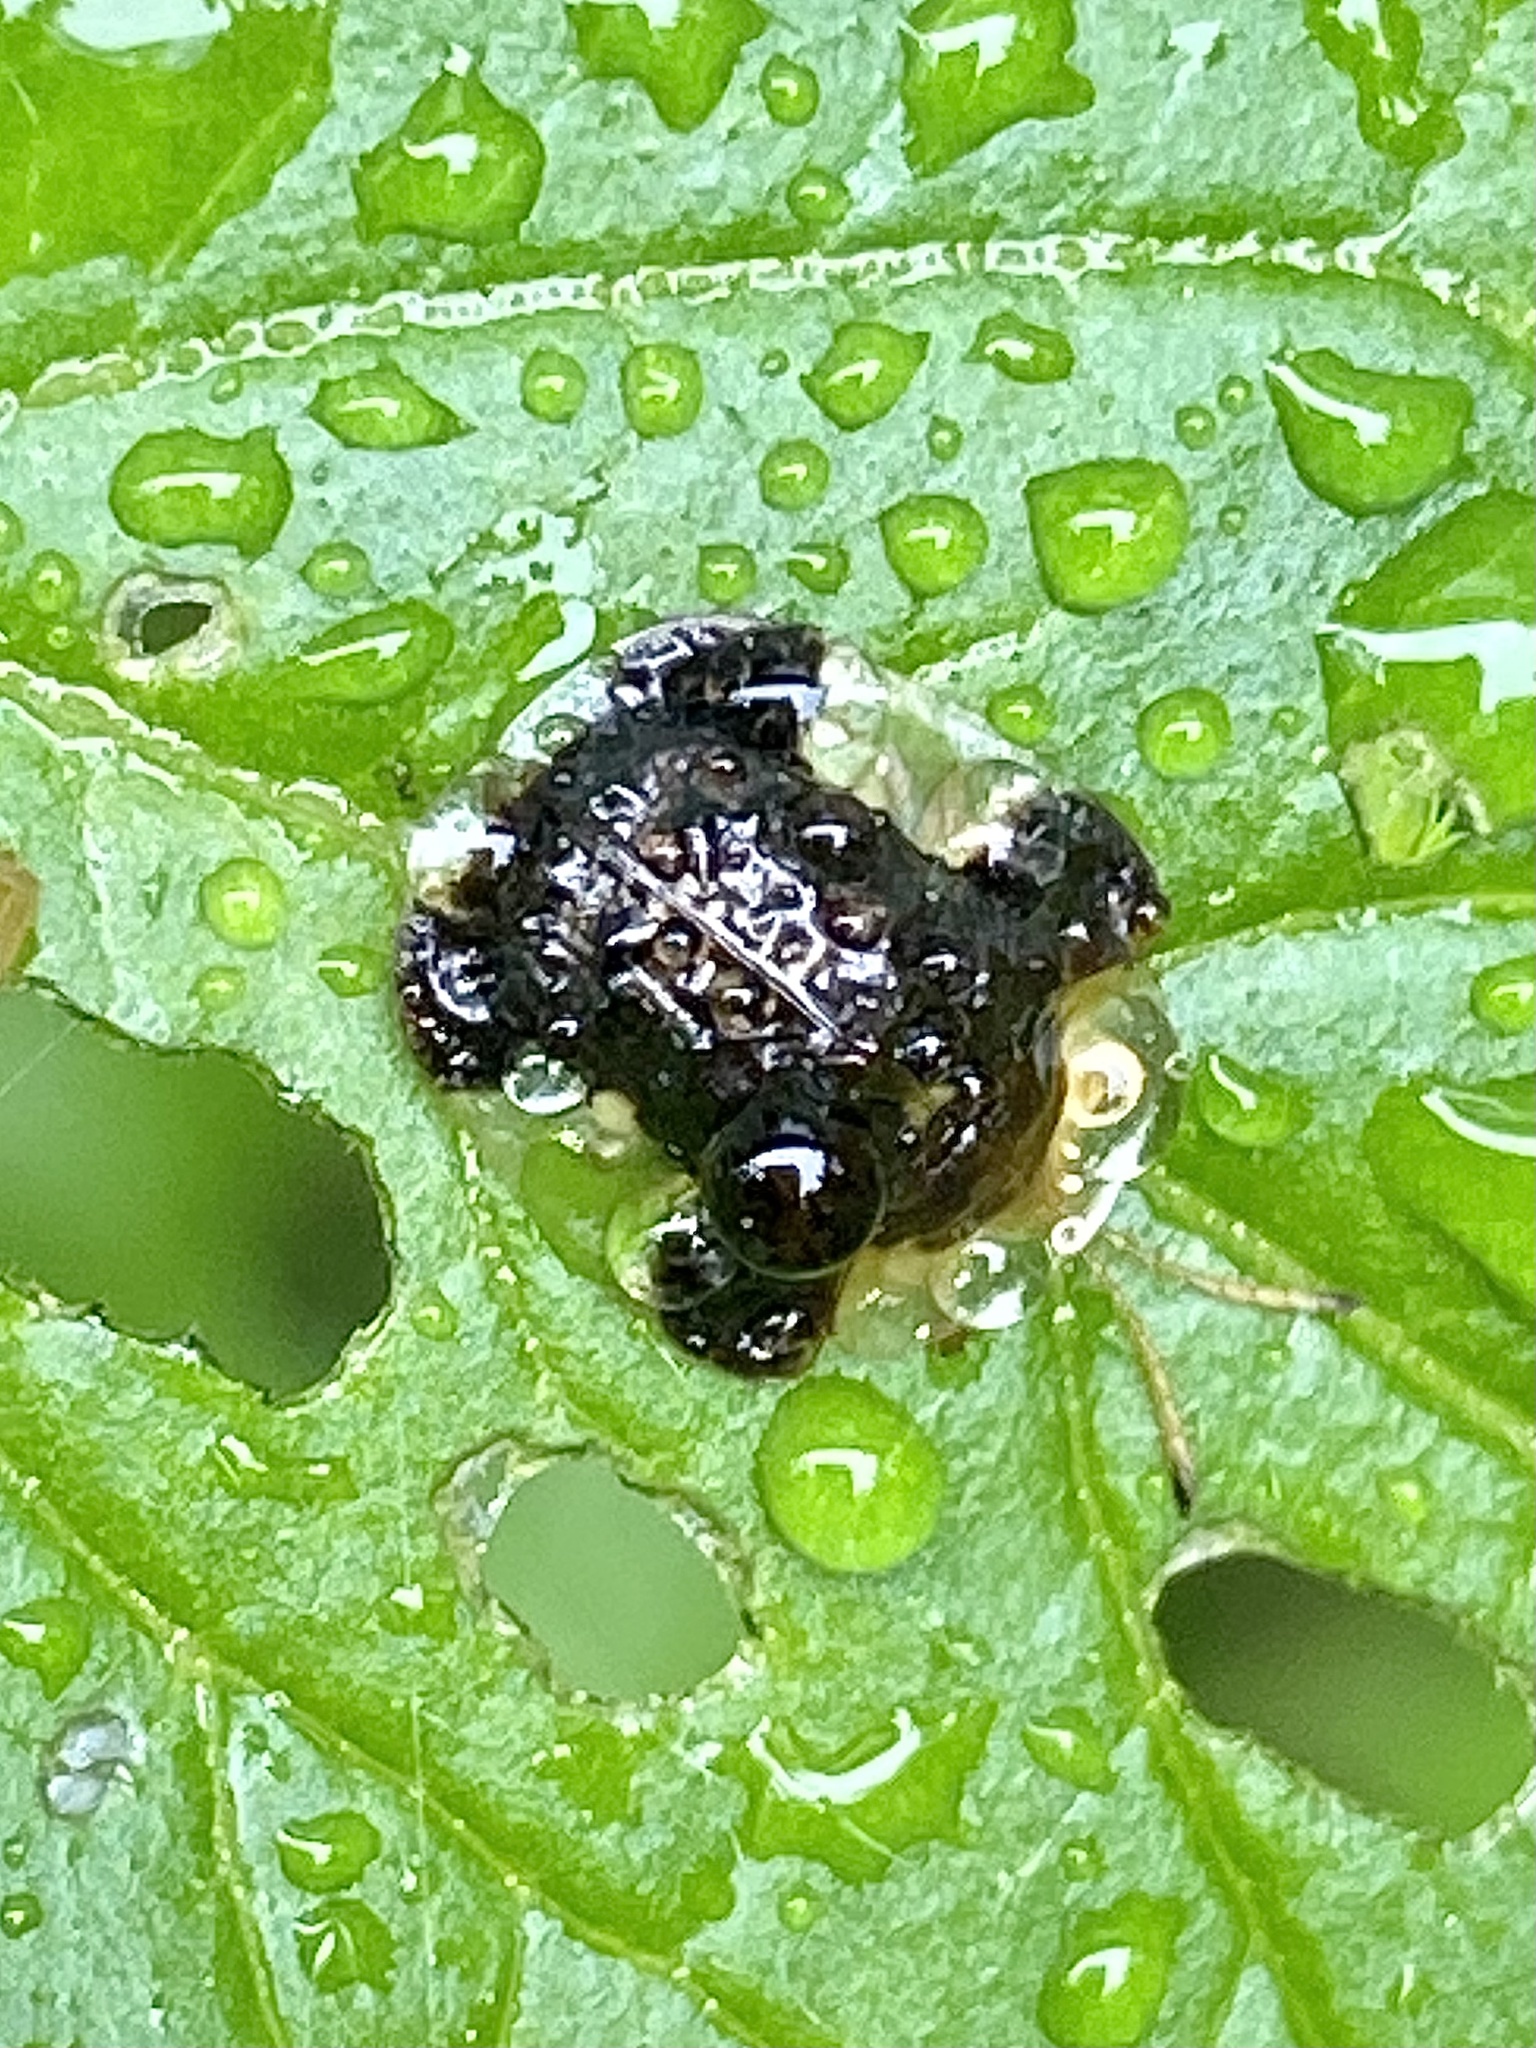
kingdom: Animalia
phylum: Arthropoda
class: Insecta
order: Coleoptera
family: Chrysomelidae
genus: Helocassis
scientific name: Helocassis clavata
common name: Clavate tortoise beetle
